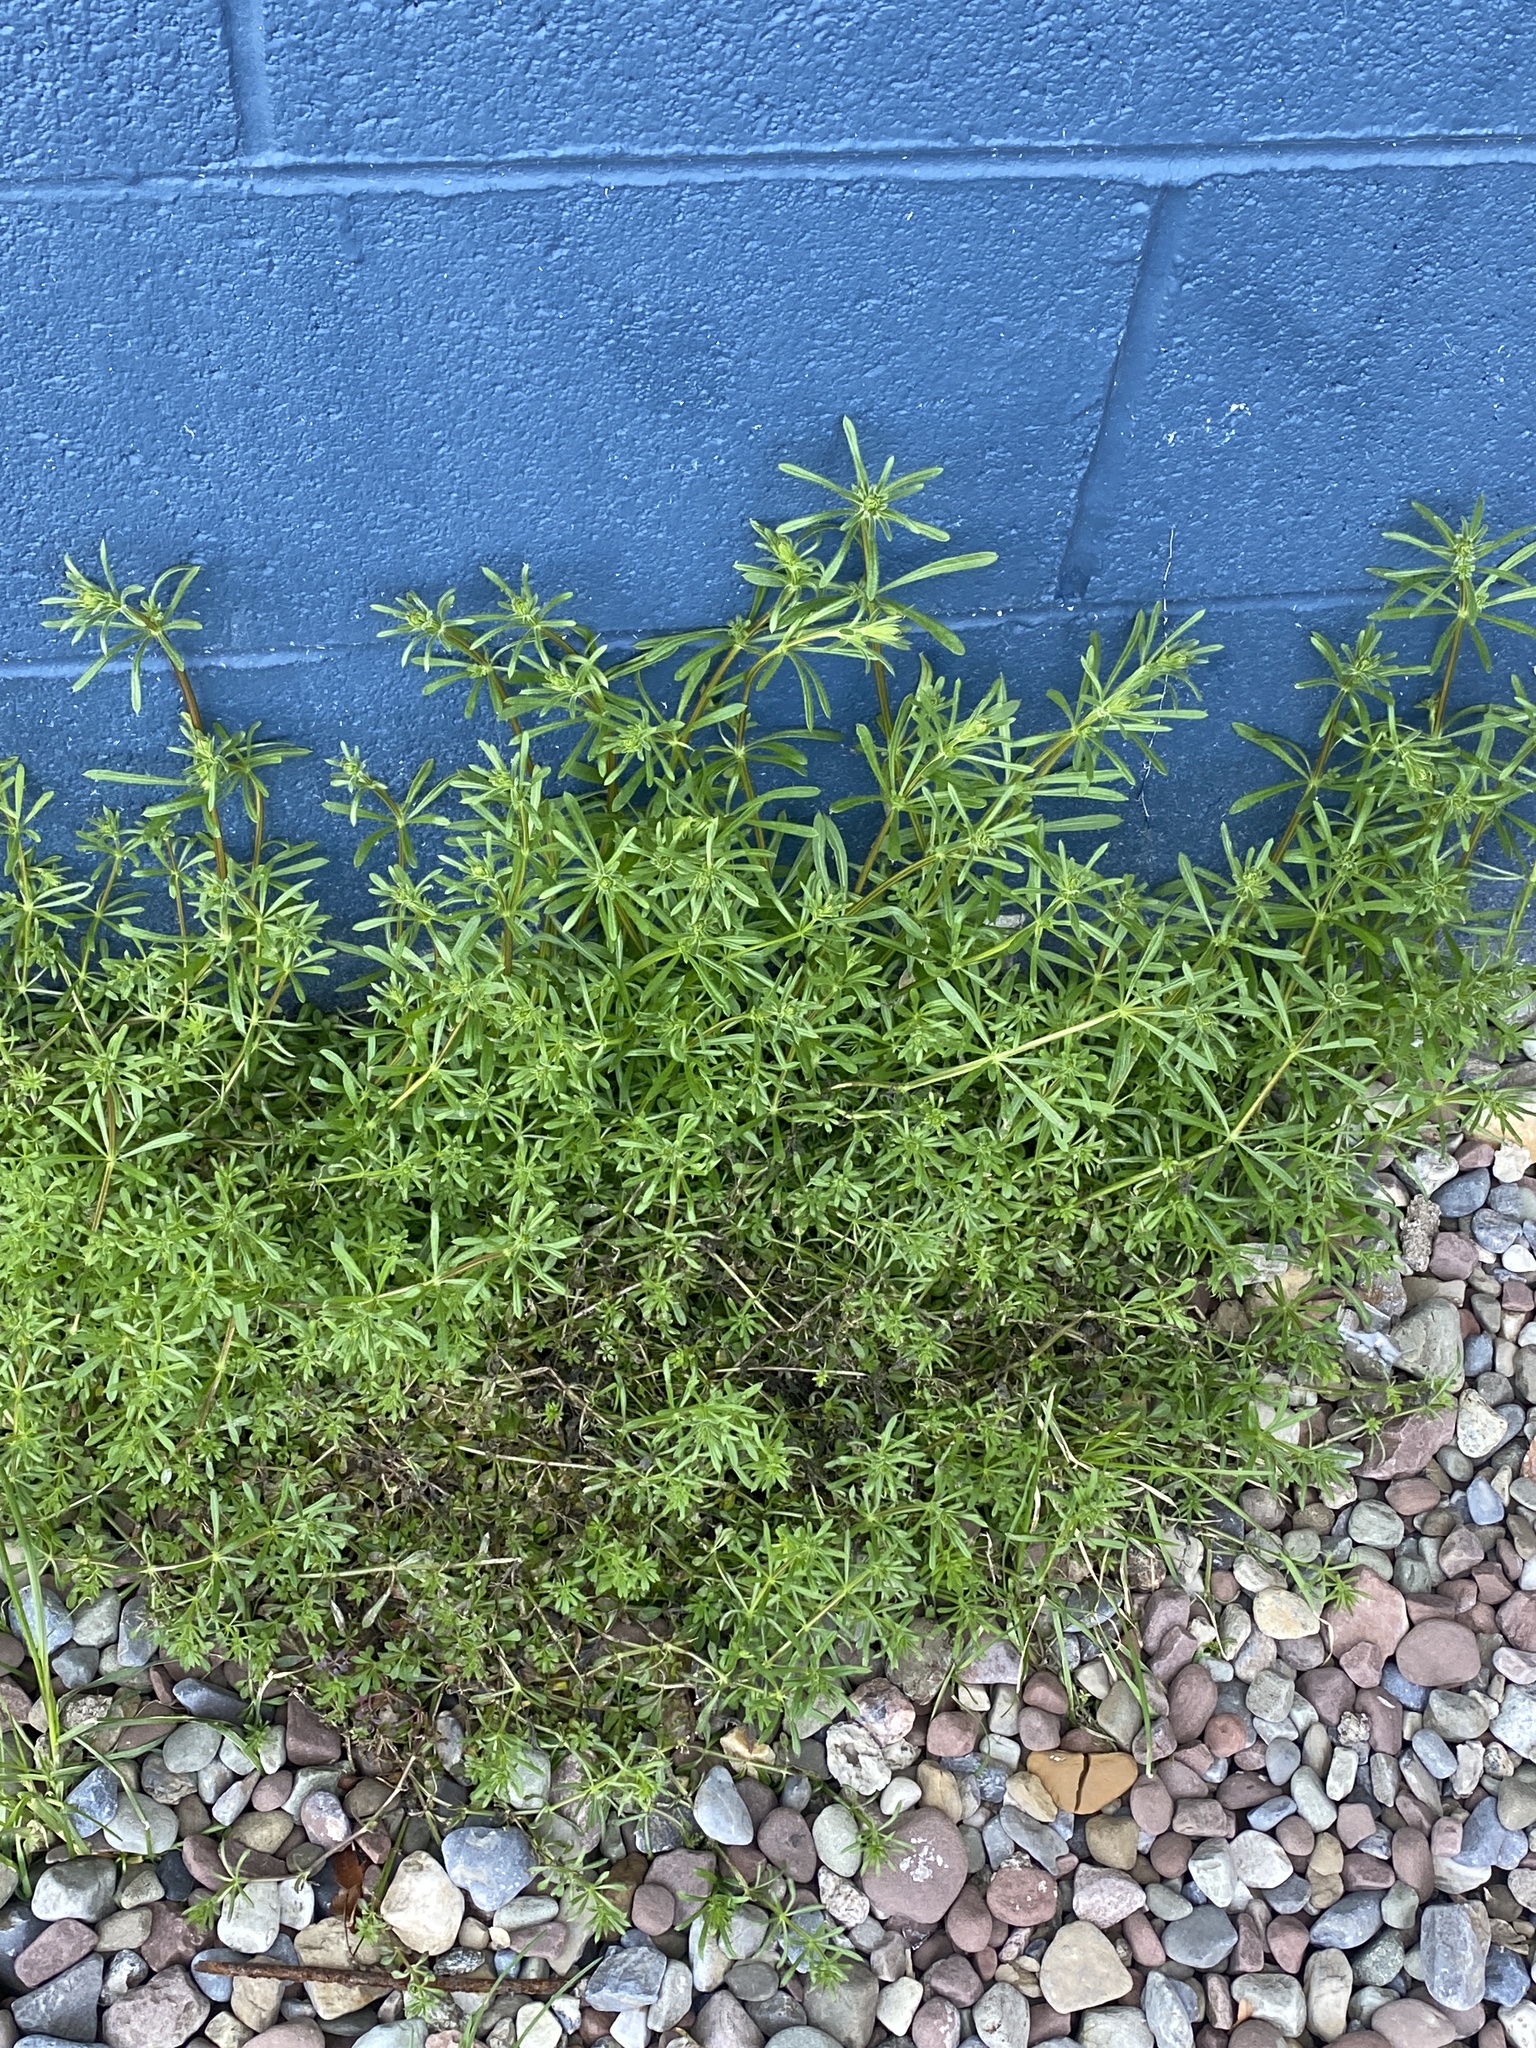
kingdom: Plantae
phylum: Tracheophyta
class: Magnoliopsida
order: Gentianales
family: Rubiaceae
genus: Galium
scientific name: Galium aparine
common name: Cleavers
